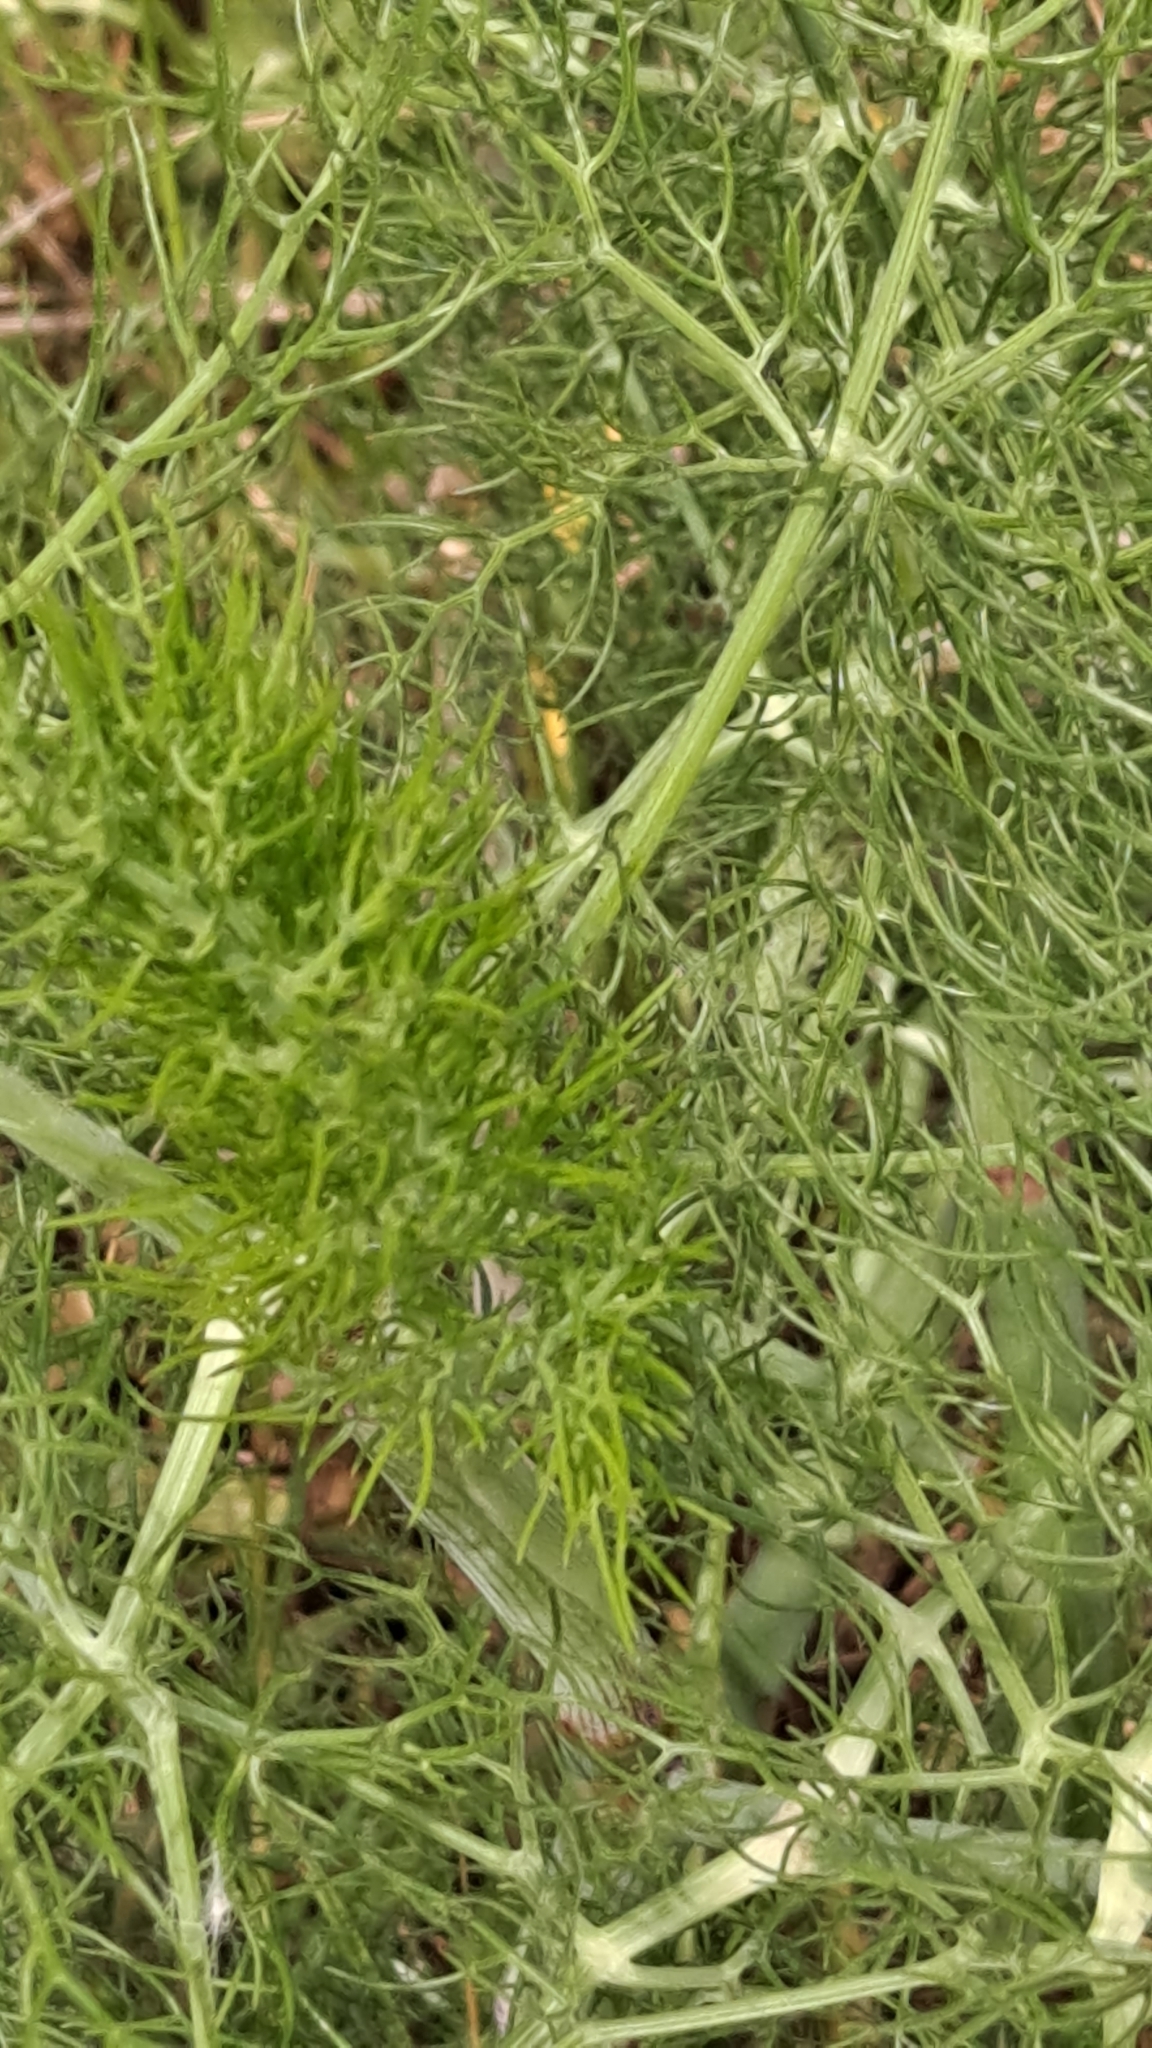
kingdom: Plantae
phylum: Tracheophyta
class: Magnoliopsida
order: Apiales
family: Apiaceae
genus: Foeniculum
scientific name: Foeniculum vulgare
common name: Fennel
